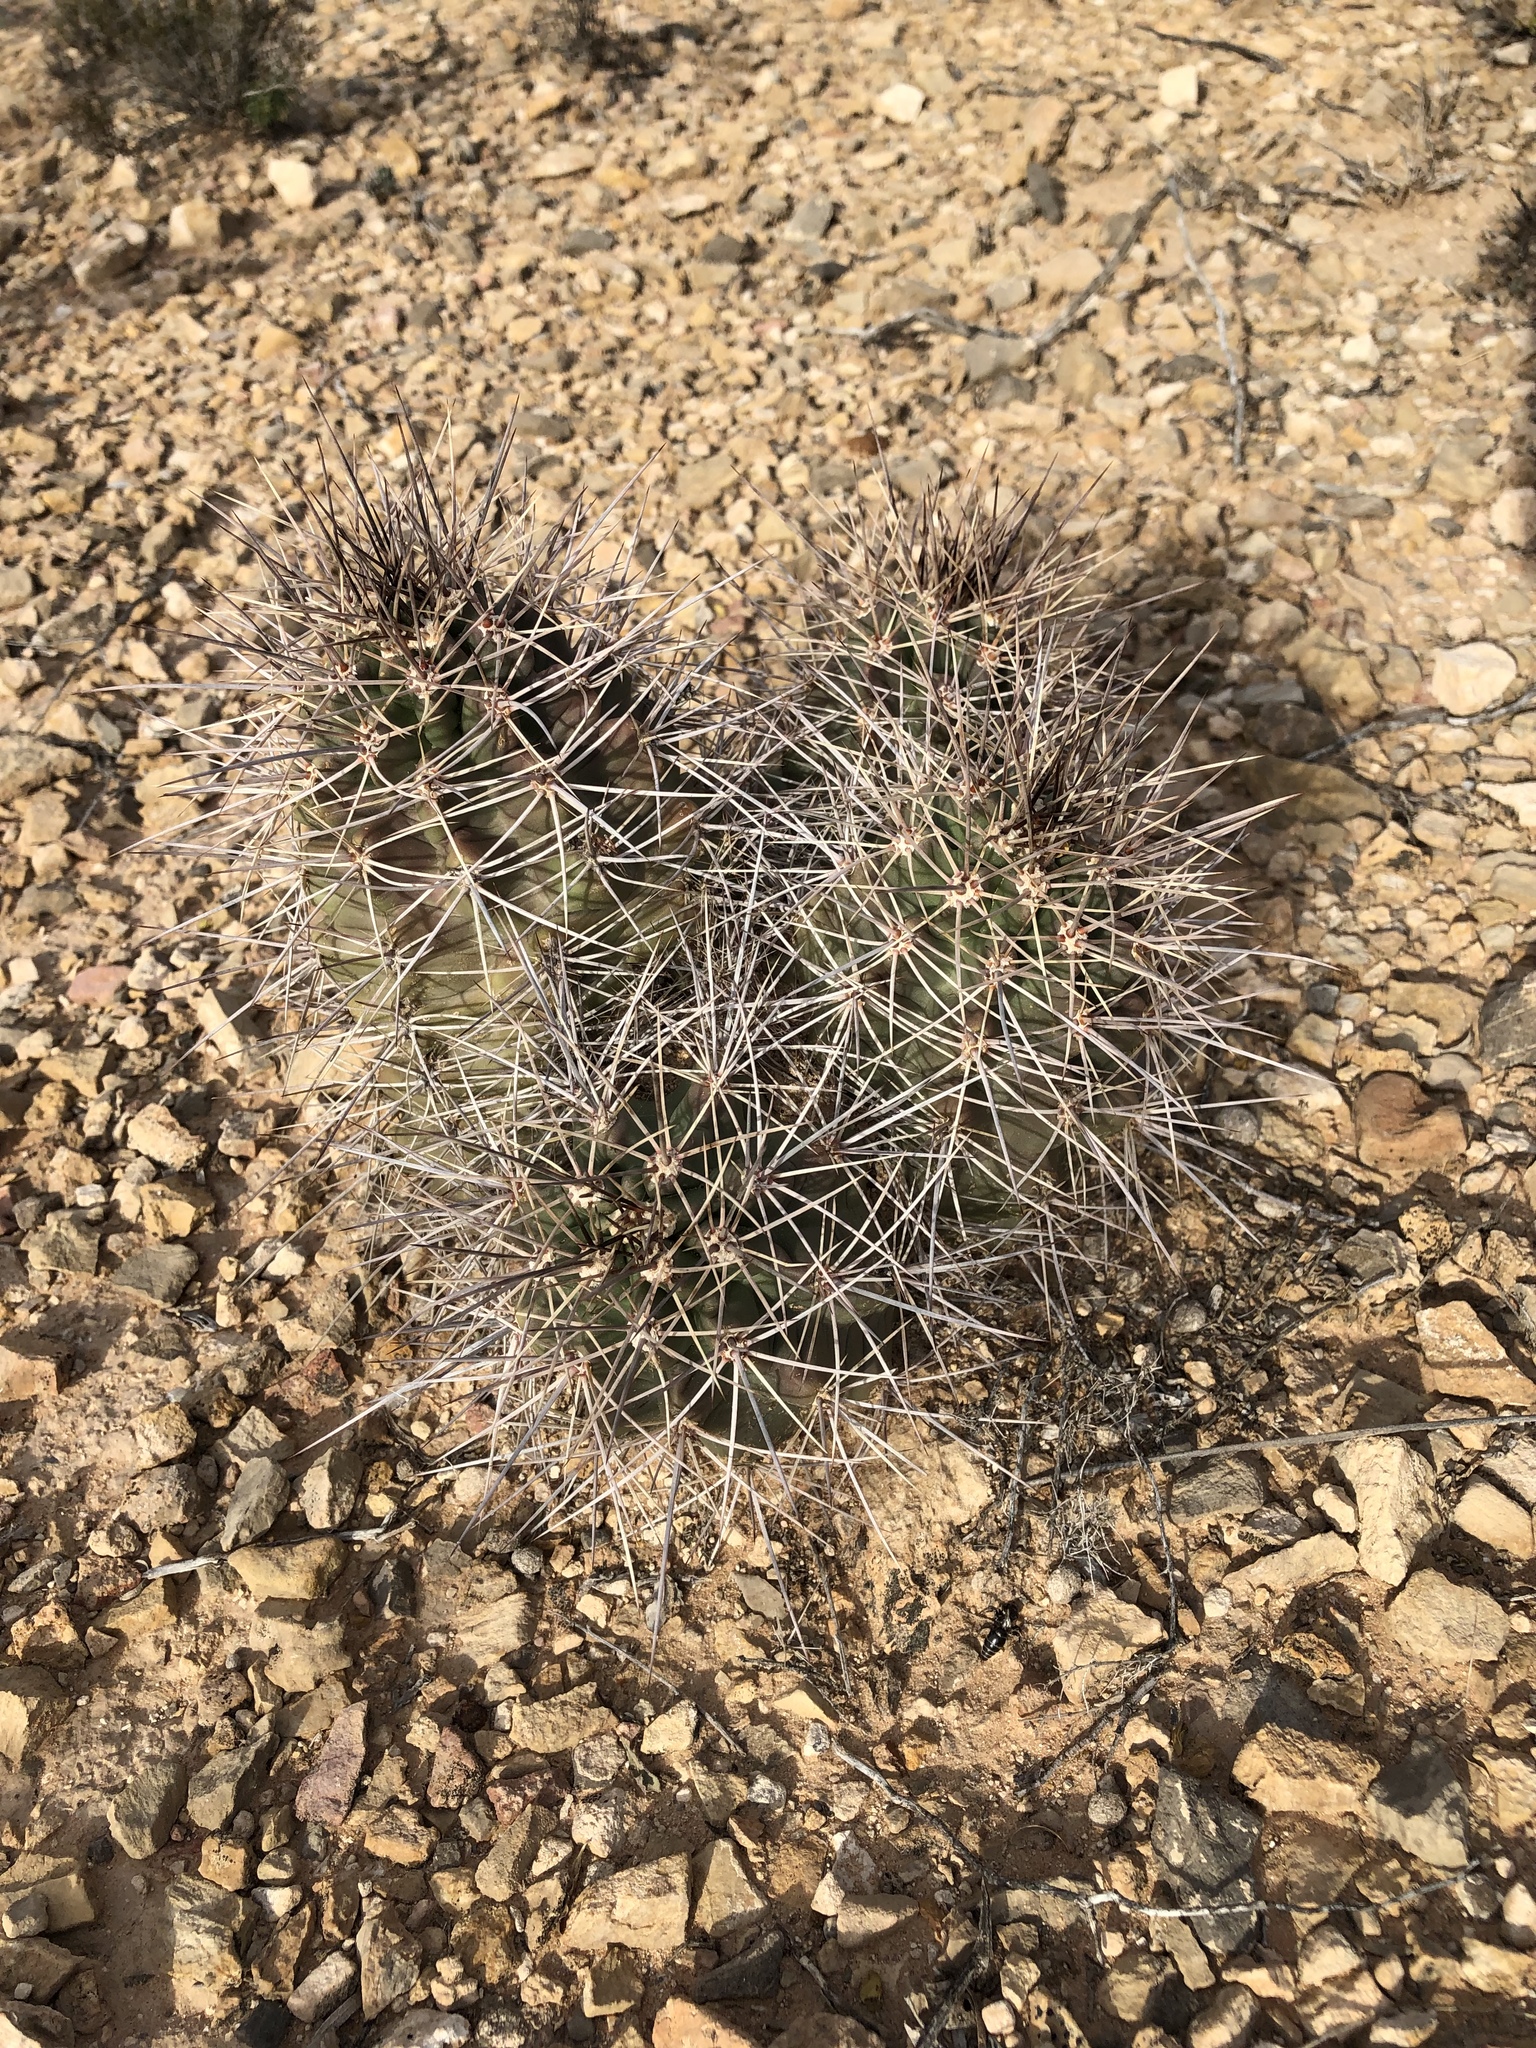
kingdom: Plantae
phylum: Tracheophyta
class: Magnoliopsida
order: Caryophyllales
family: Cactaceae
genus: Echinocereus
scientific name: Echinocereus coccineus
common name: Scarlet hedgehog cactus
